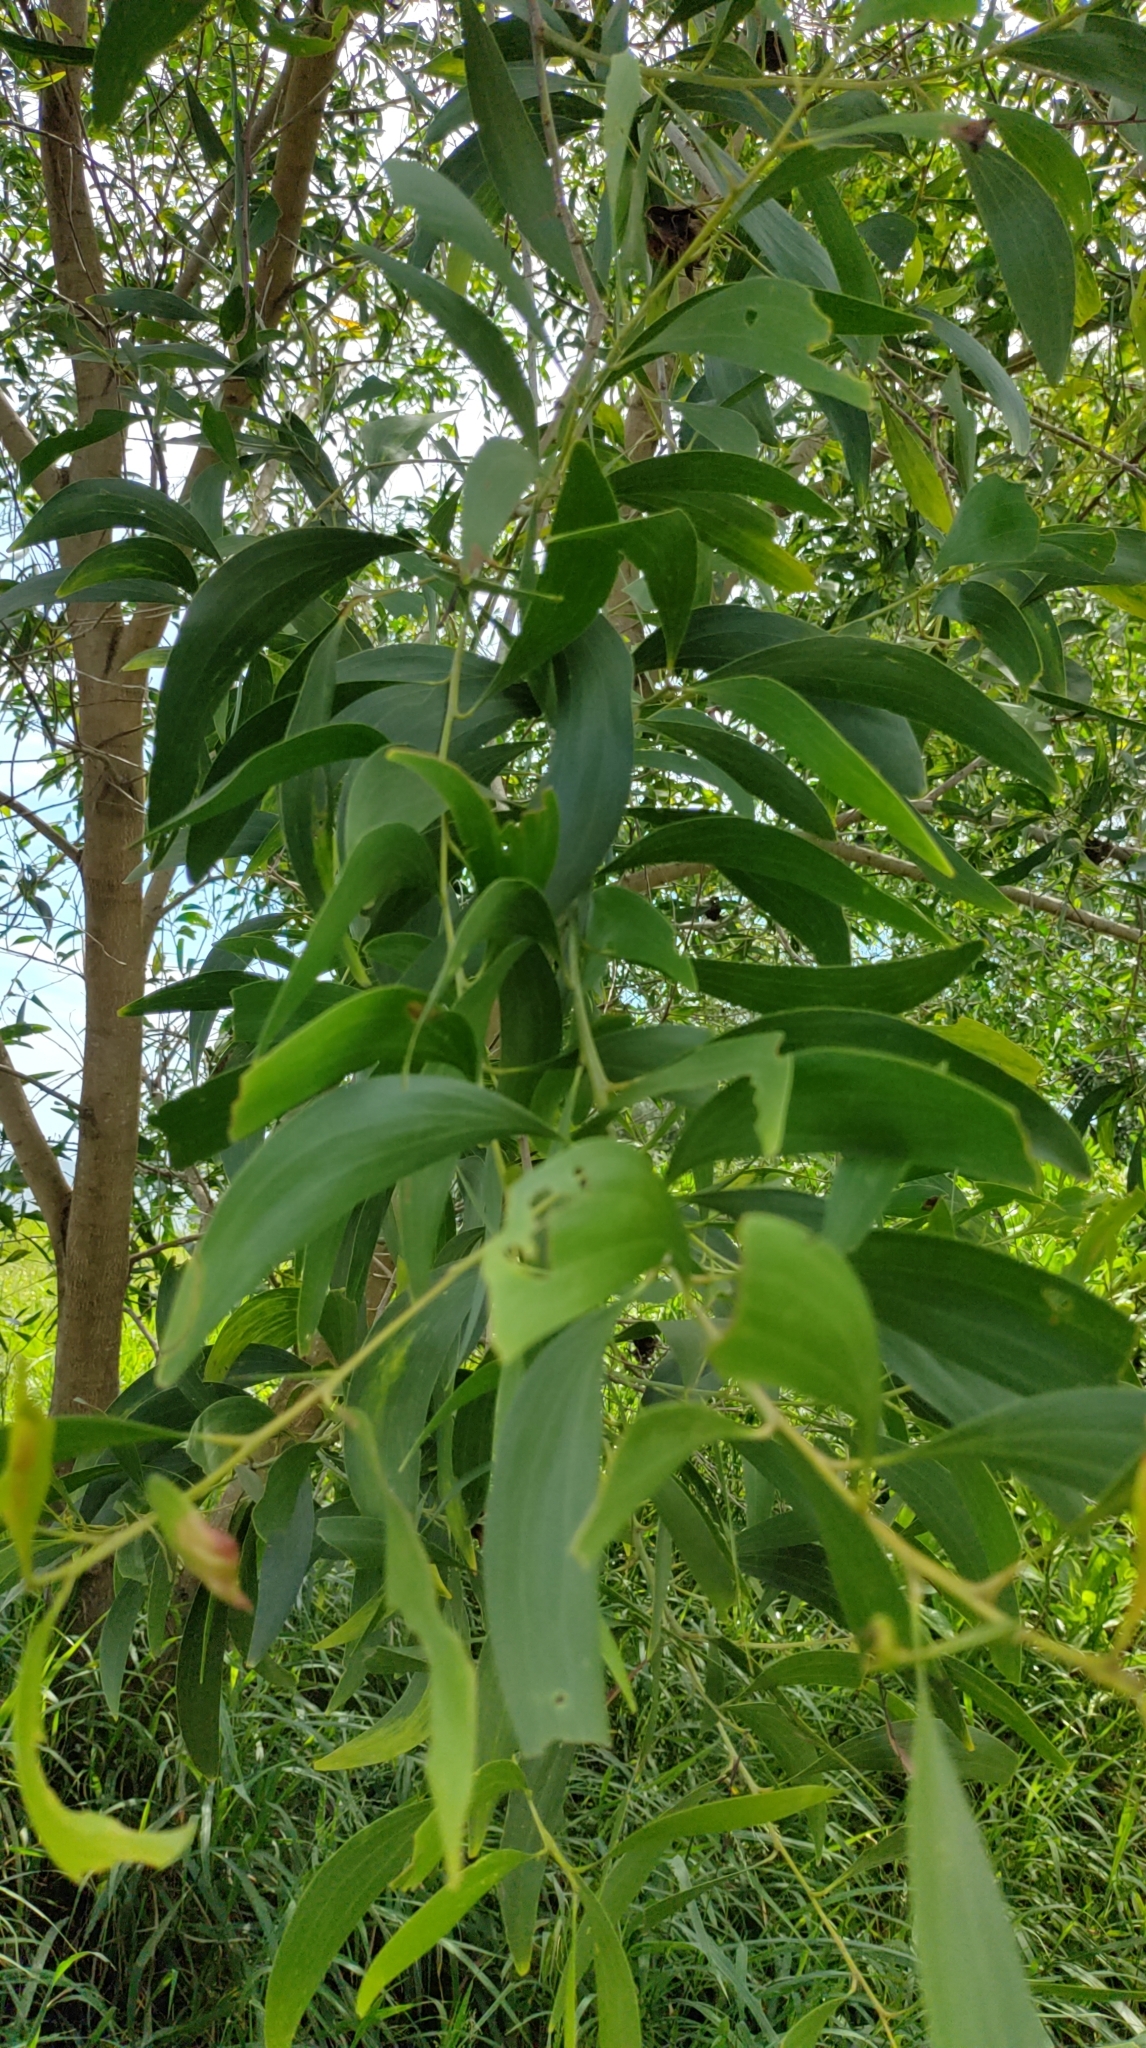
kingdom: Plantae
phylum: Tracheophyta
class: Magnoliopsida
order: Fabales
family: Fabaceae
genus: Acacia
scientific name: Acacia auriculiformis
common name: Earleaf acacia
